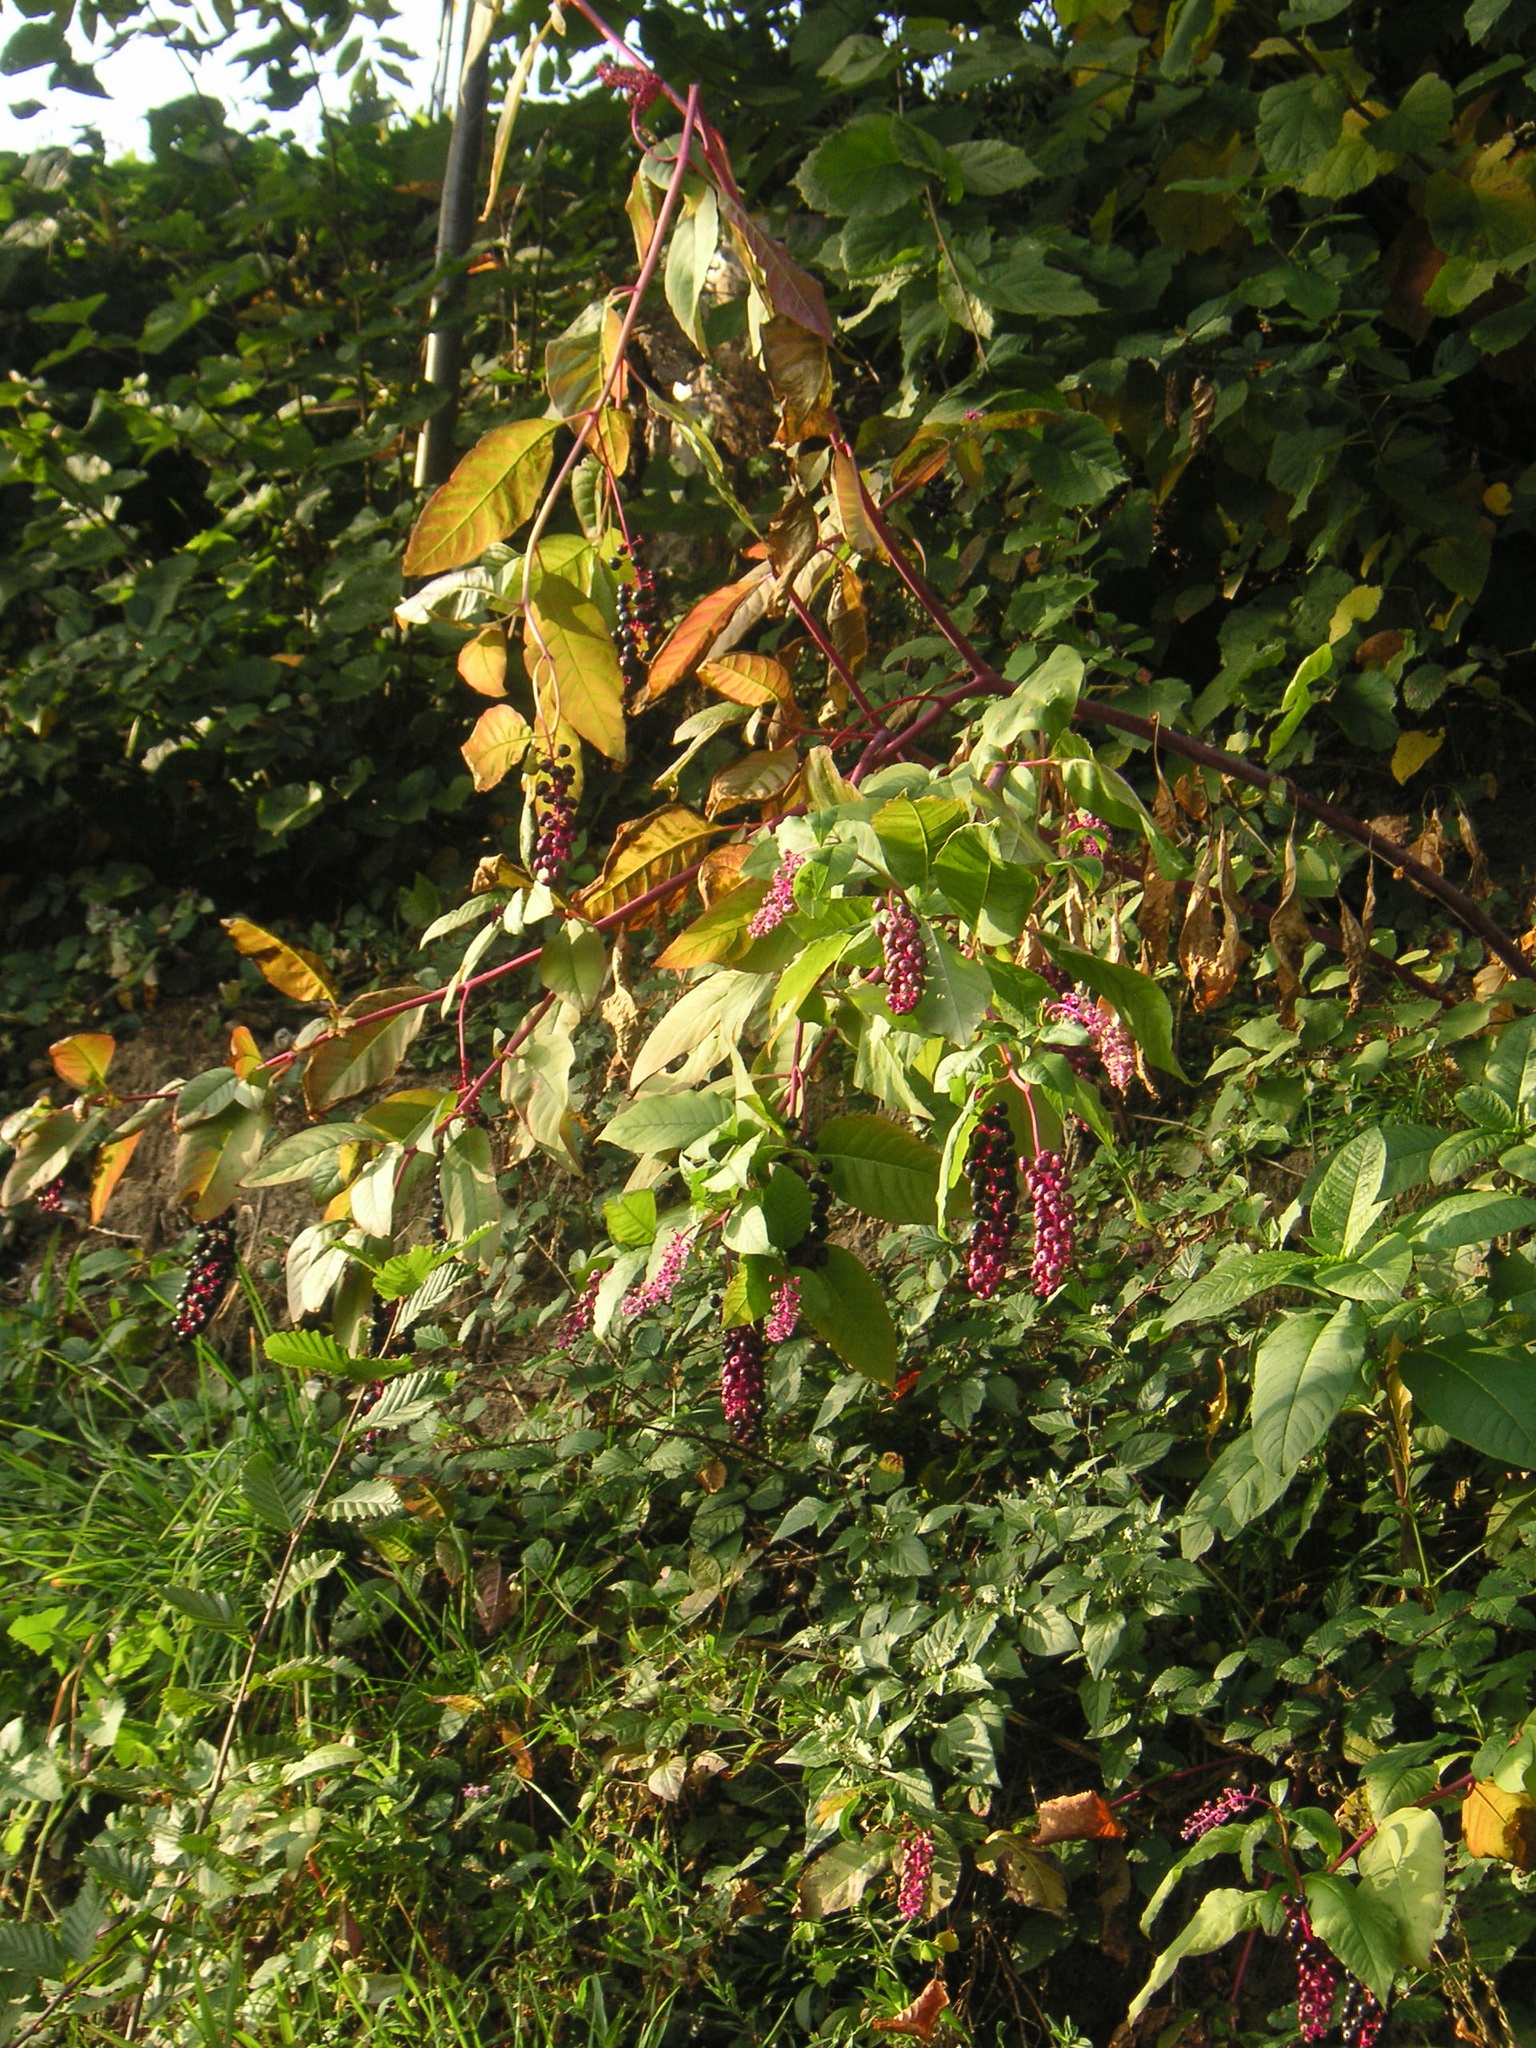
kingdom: Plantae
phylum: Tracheophyta
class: Magnoliopsida
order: Caryophyllales
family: Phytolaccaceae
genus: Phytolacca
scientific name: Phytolacca americana
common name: American pokeweed
